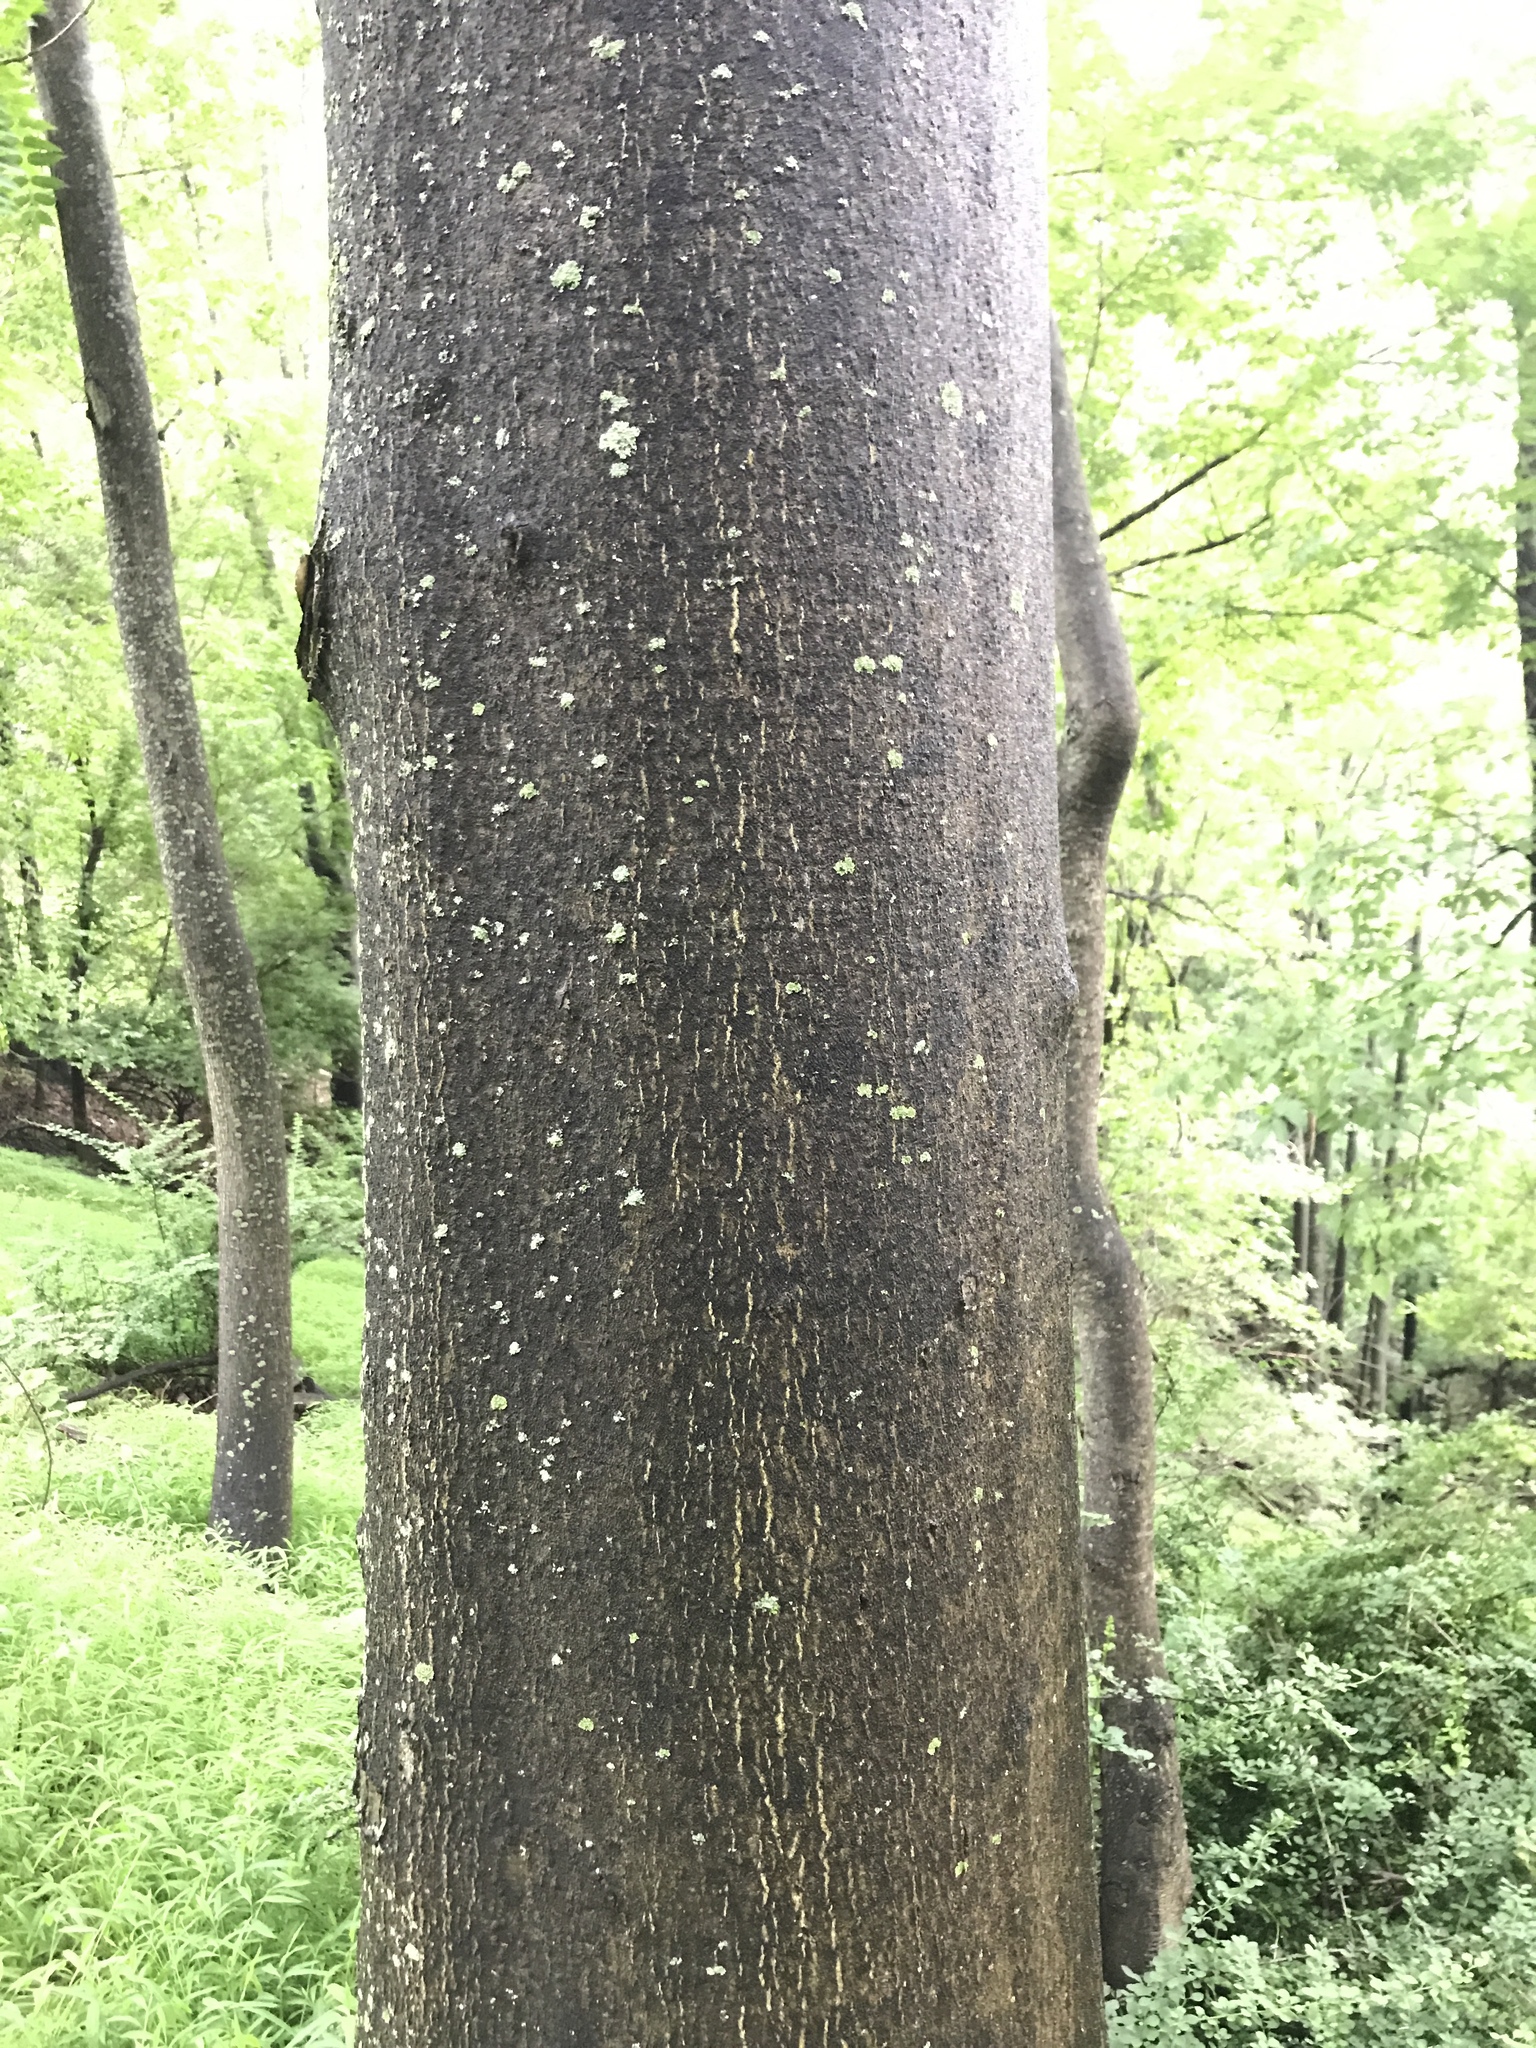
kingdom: Plantae
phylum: Tracheophyta
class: Magnoliopsida
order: Sapindales
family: Simaroubaceae
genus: Ailanthus
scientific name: Ailanthus altissima
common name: Tree-of-heaven
